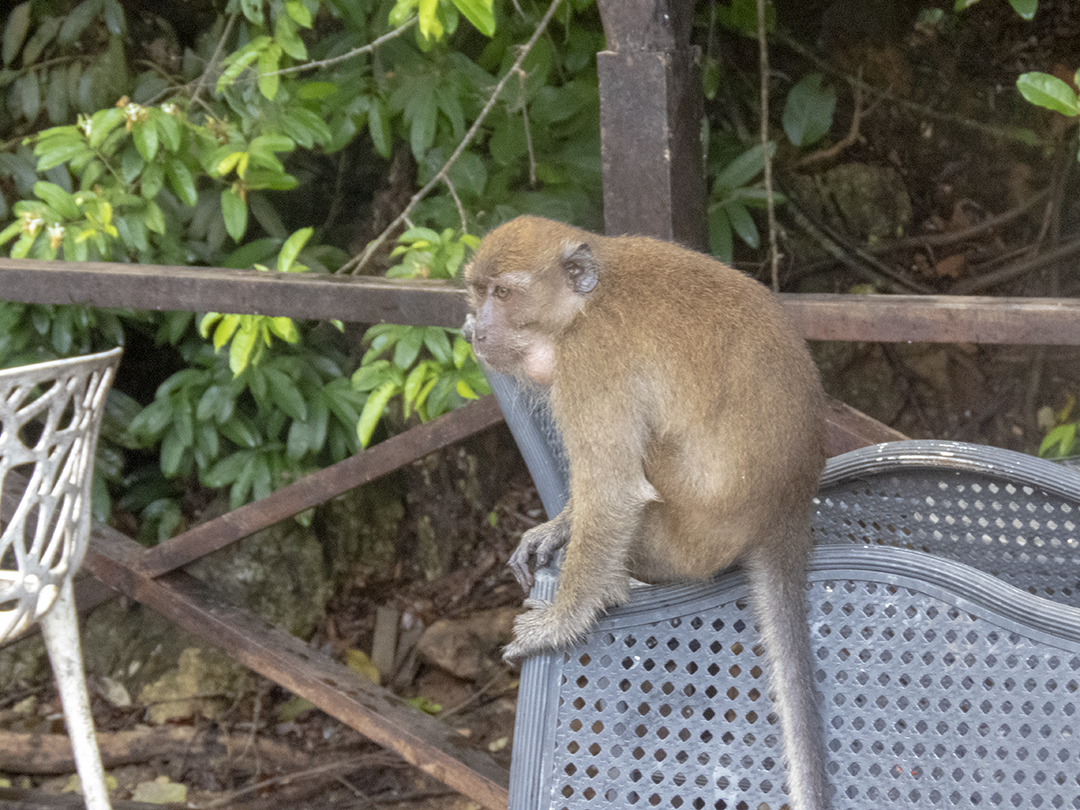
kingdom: Animalia
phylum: Chordata
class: Mammalia
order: Primates
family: Cercopithecidae
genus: Macaca
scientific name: Macaca fascicularis
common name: Crab-eating macaque
